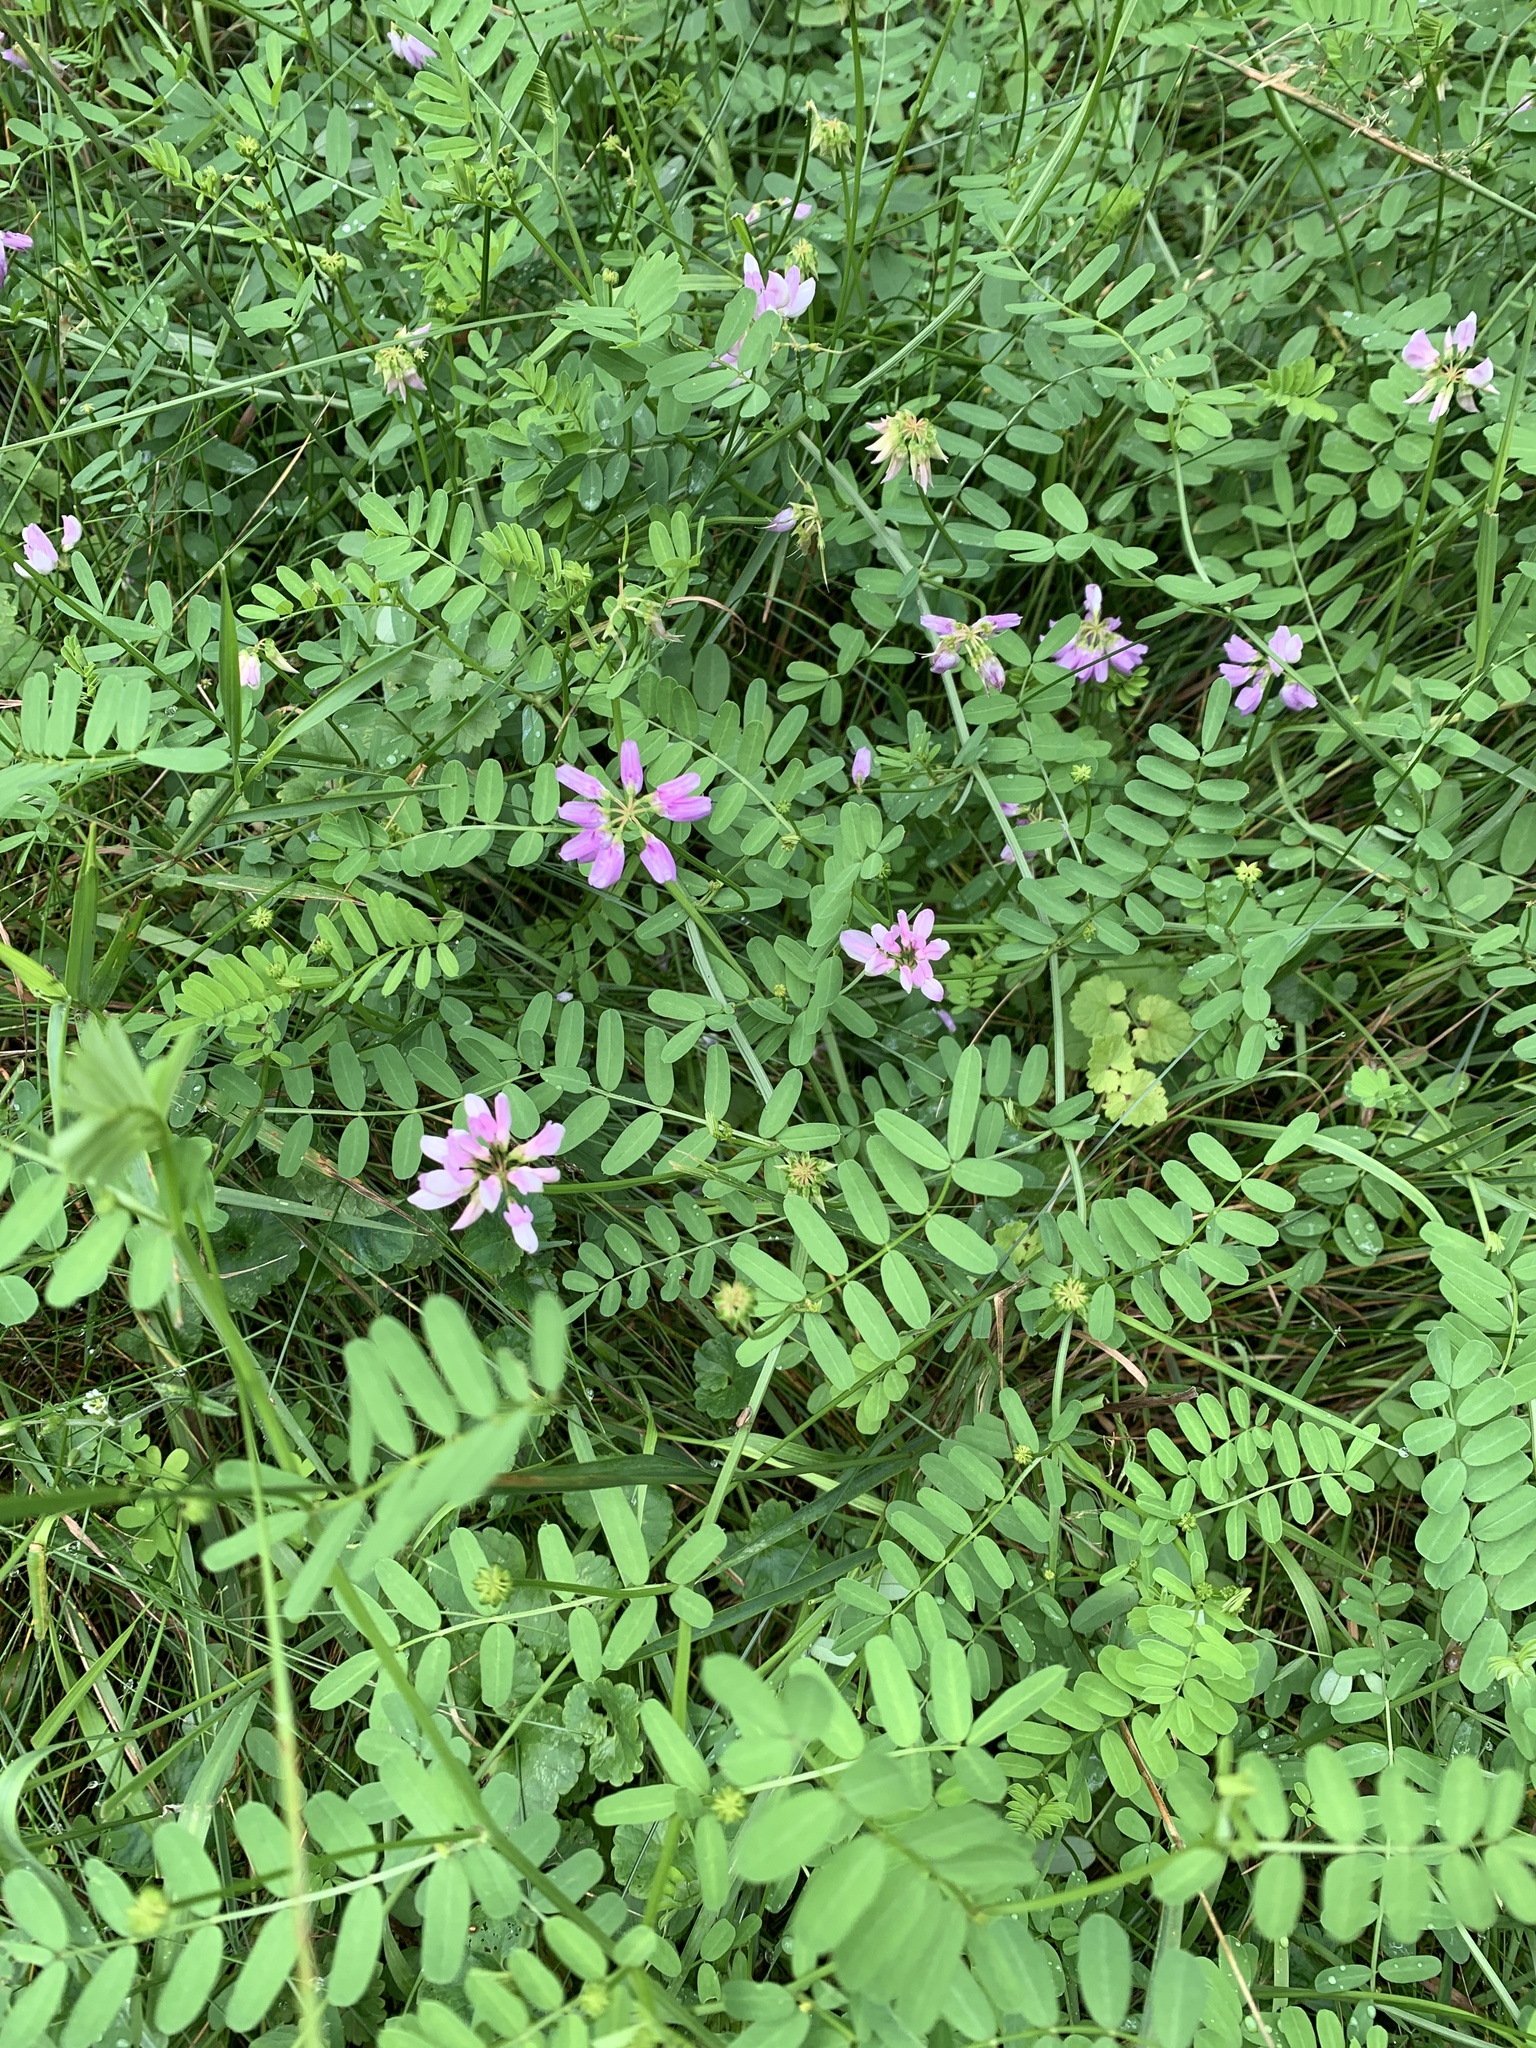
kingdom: Plantae
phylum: Tracheophyta
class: Magnoliopsida
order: Fabales
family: Fabaceae
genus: Coronilla
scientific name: Coronilla varia
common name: Crownvetch
